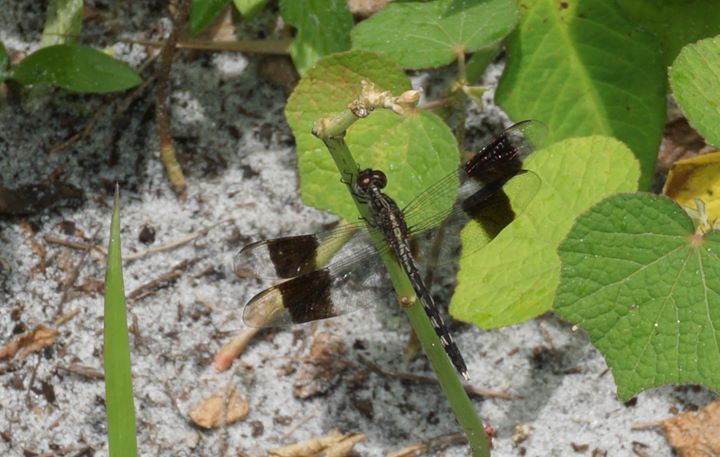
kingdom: Animalia
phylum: Arthropoda
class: Insecta
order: Odonata
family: Libellulidae
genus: Brachymesia
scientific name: Brachymesia gravida
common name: Four-spotted pennant
